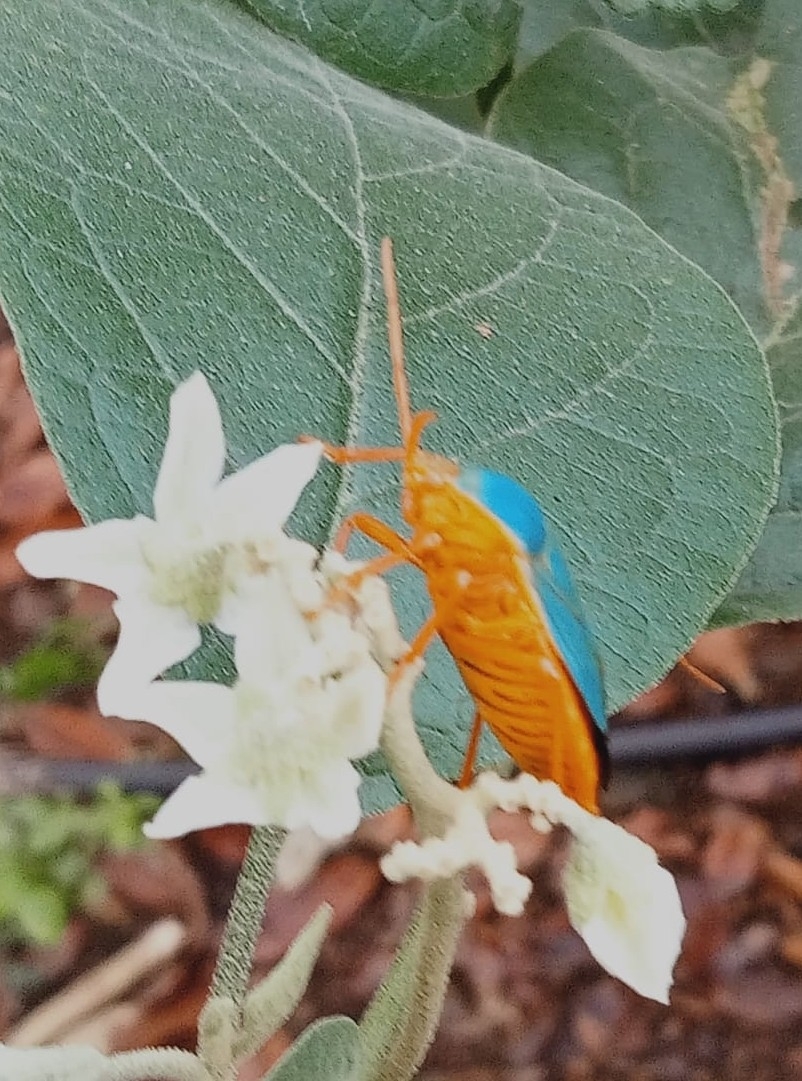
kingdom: Animalia
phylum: Arthropoda
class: Insecta
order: Hemiptera
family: Pentatomidae
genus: Edessa
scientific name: Edessa rufomarginata
